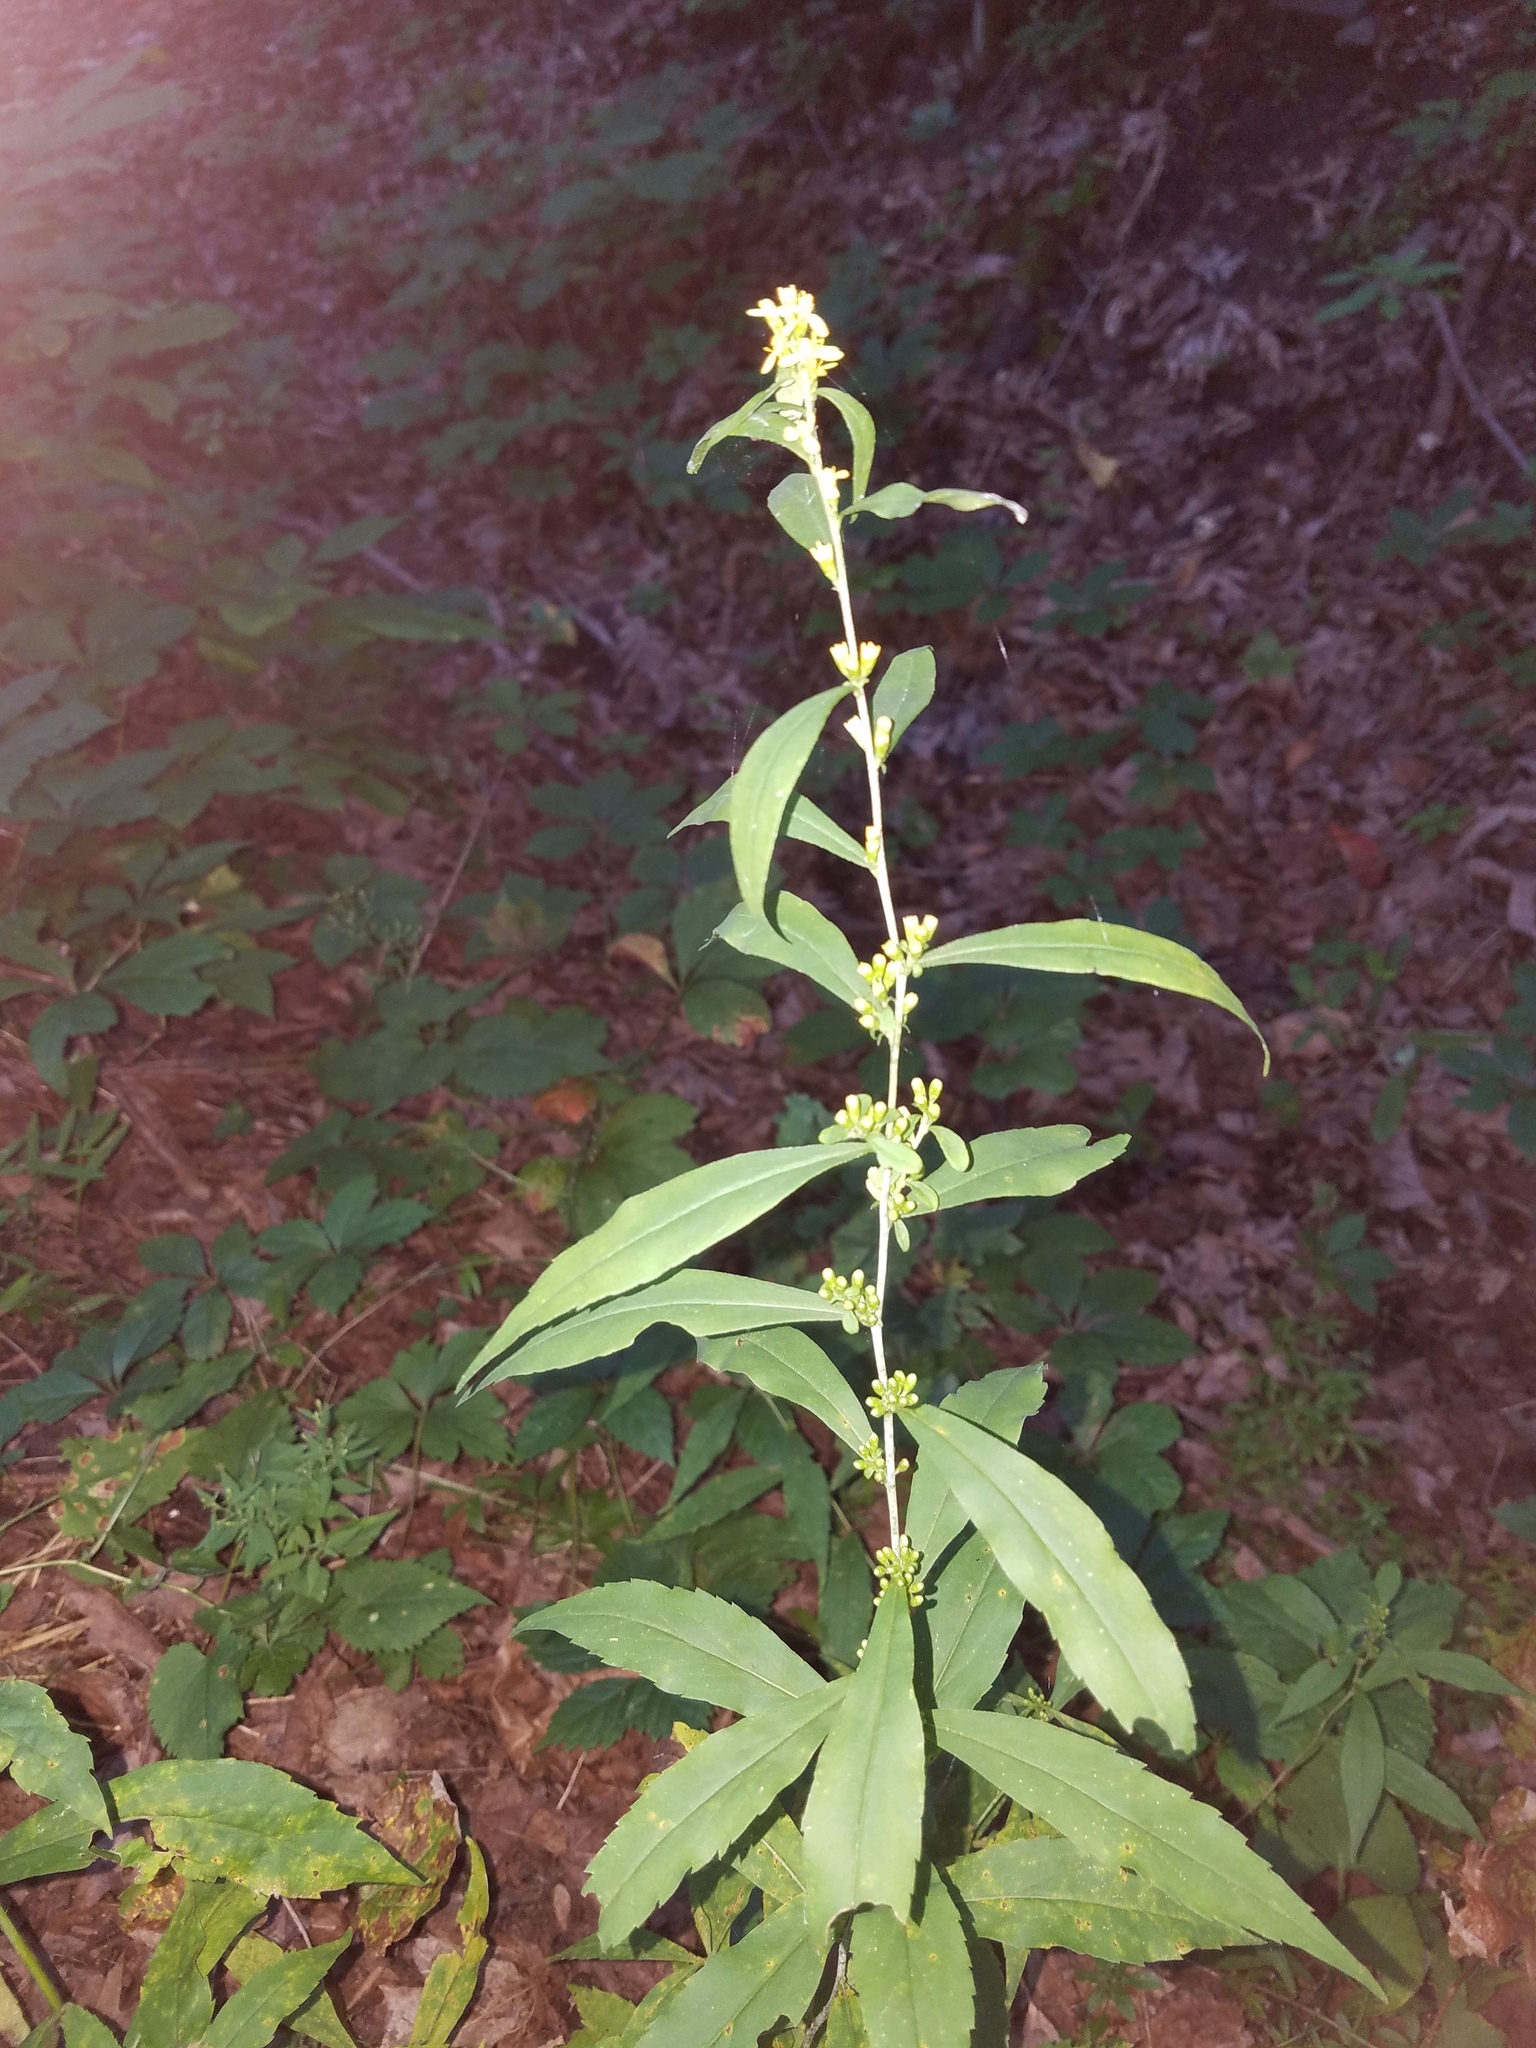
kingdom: Plantae
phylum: Tracheophyta
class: Magnoliopsida
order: Asterales
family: Asteraceae
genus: Solidago
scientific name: Solidago caesia
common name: Woodland goldenrod
